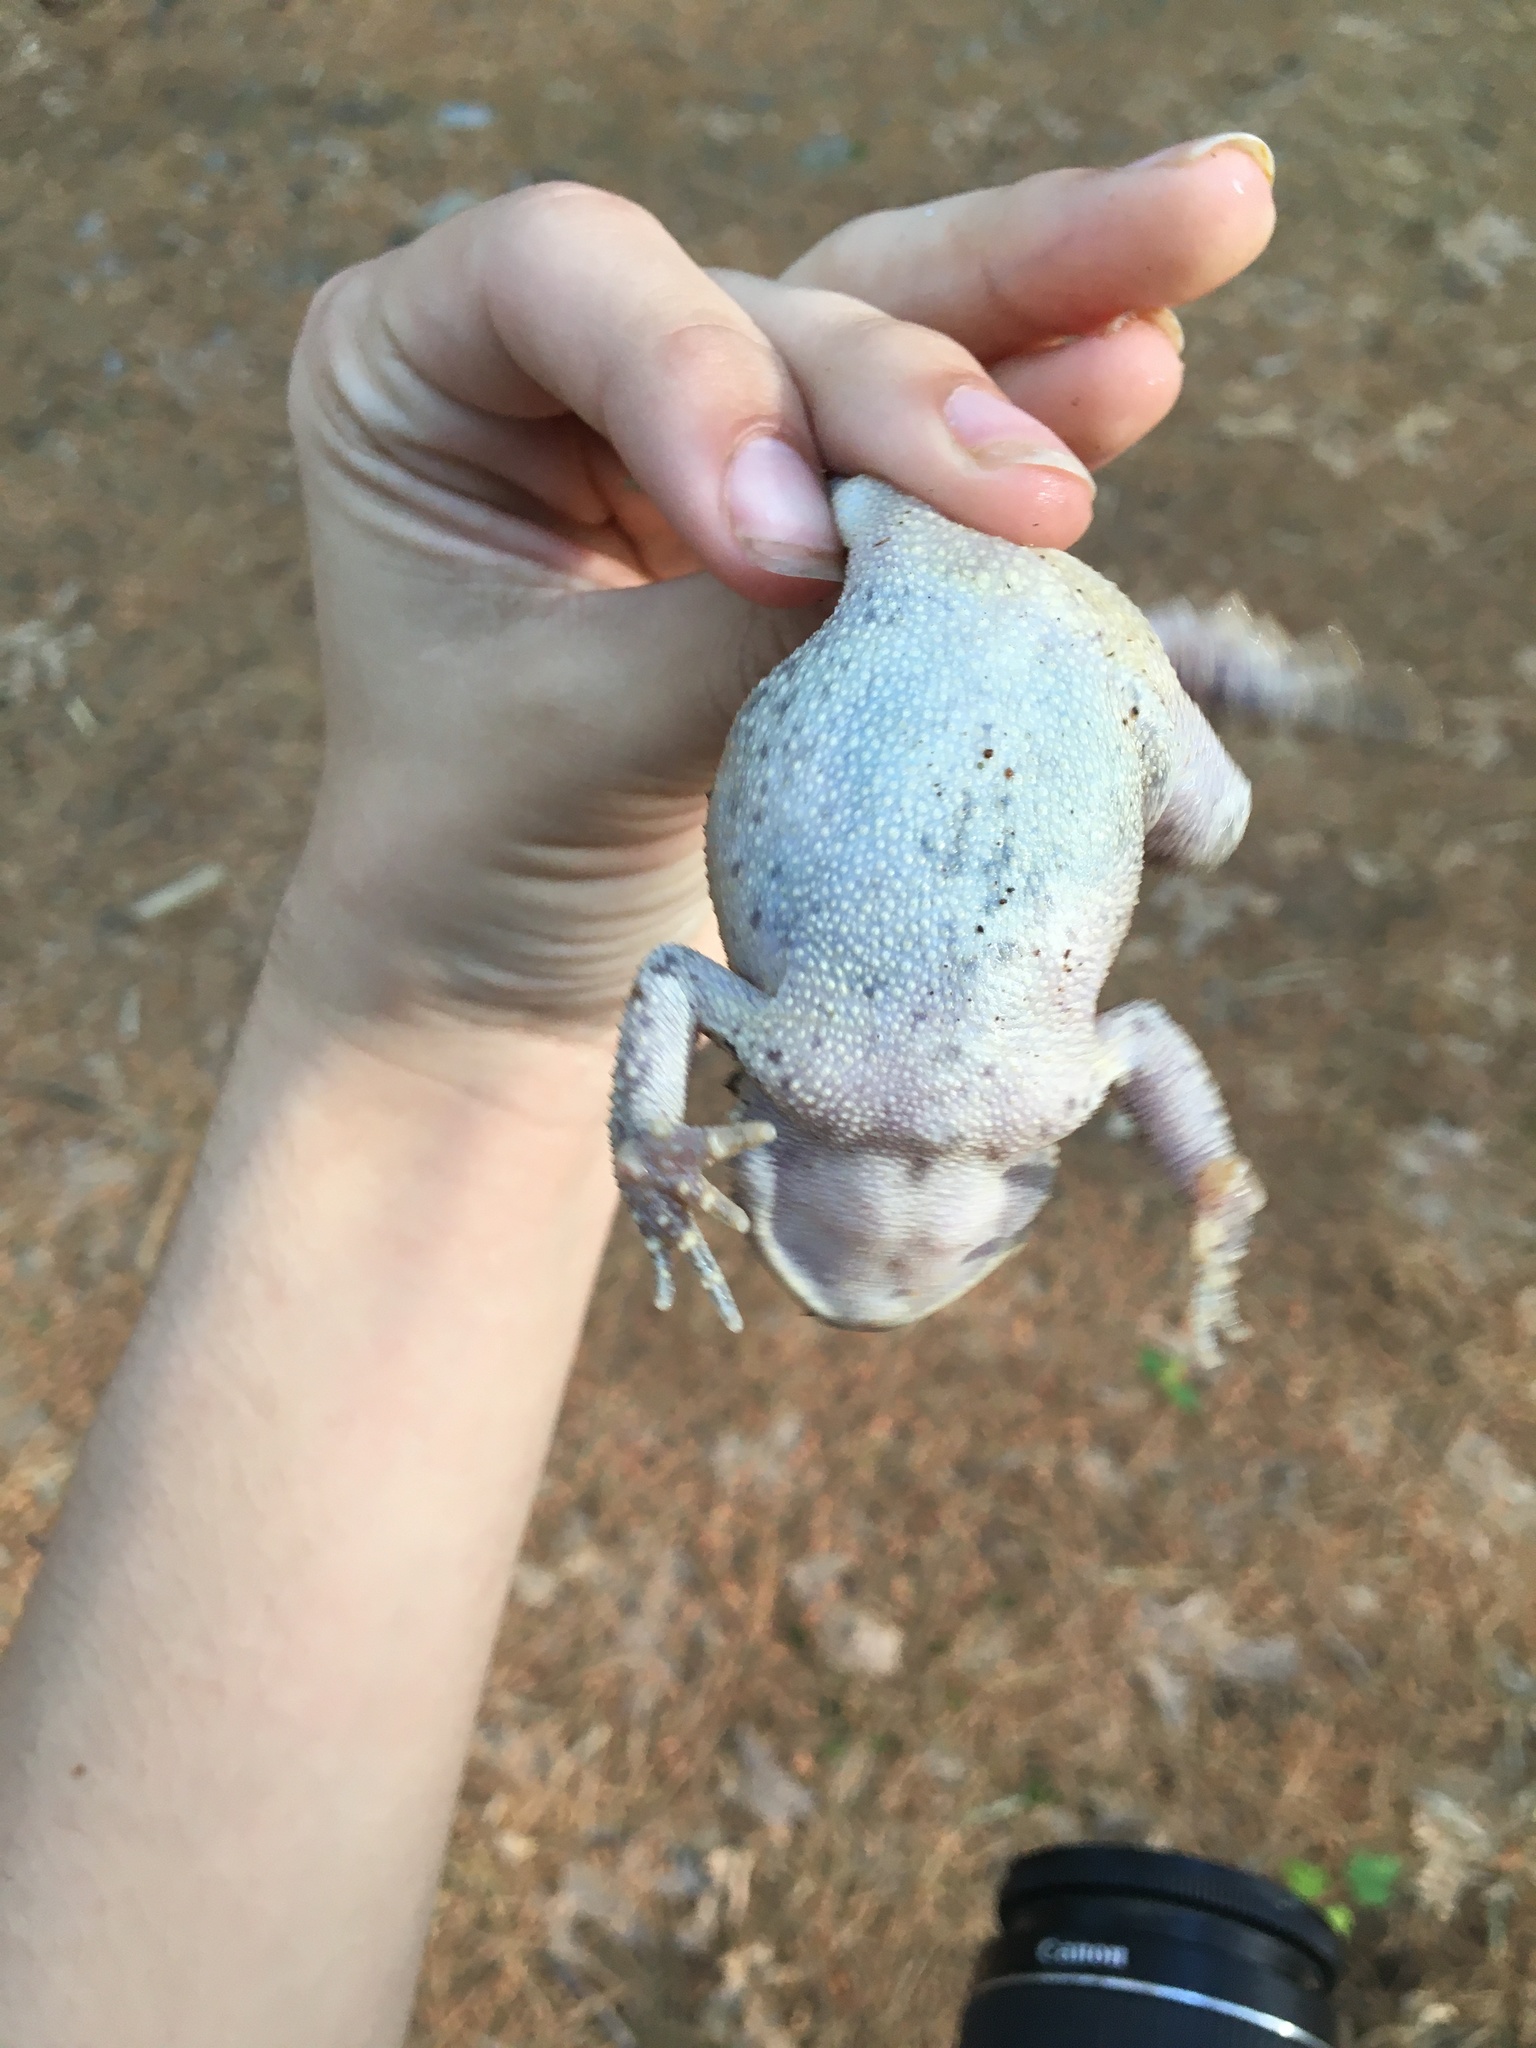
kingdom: Animalia
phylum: Chordata
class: Amphibia
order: Anura
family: Bufonidae
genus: Anaxyrus
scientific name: Anaxyrus americanus
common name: American toad
